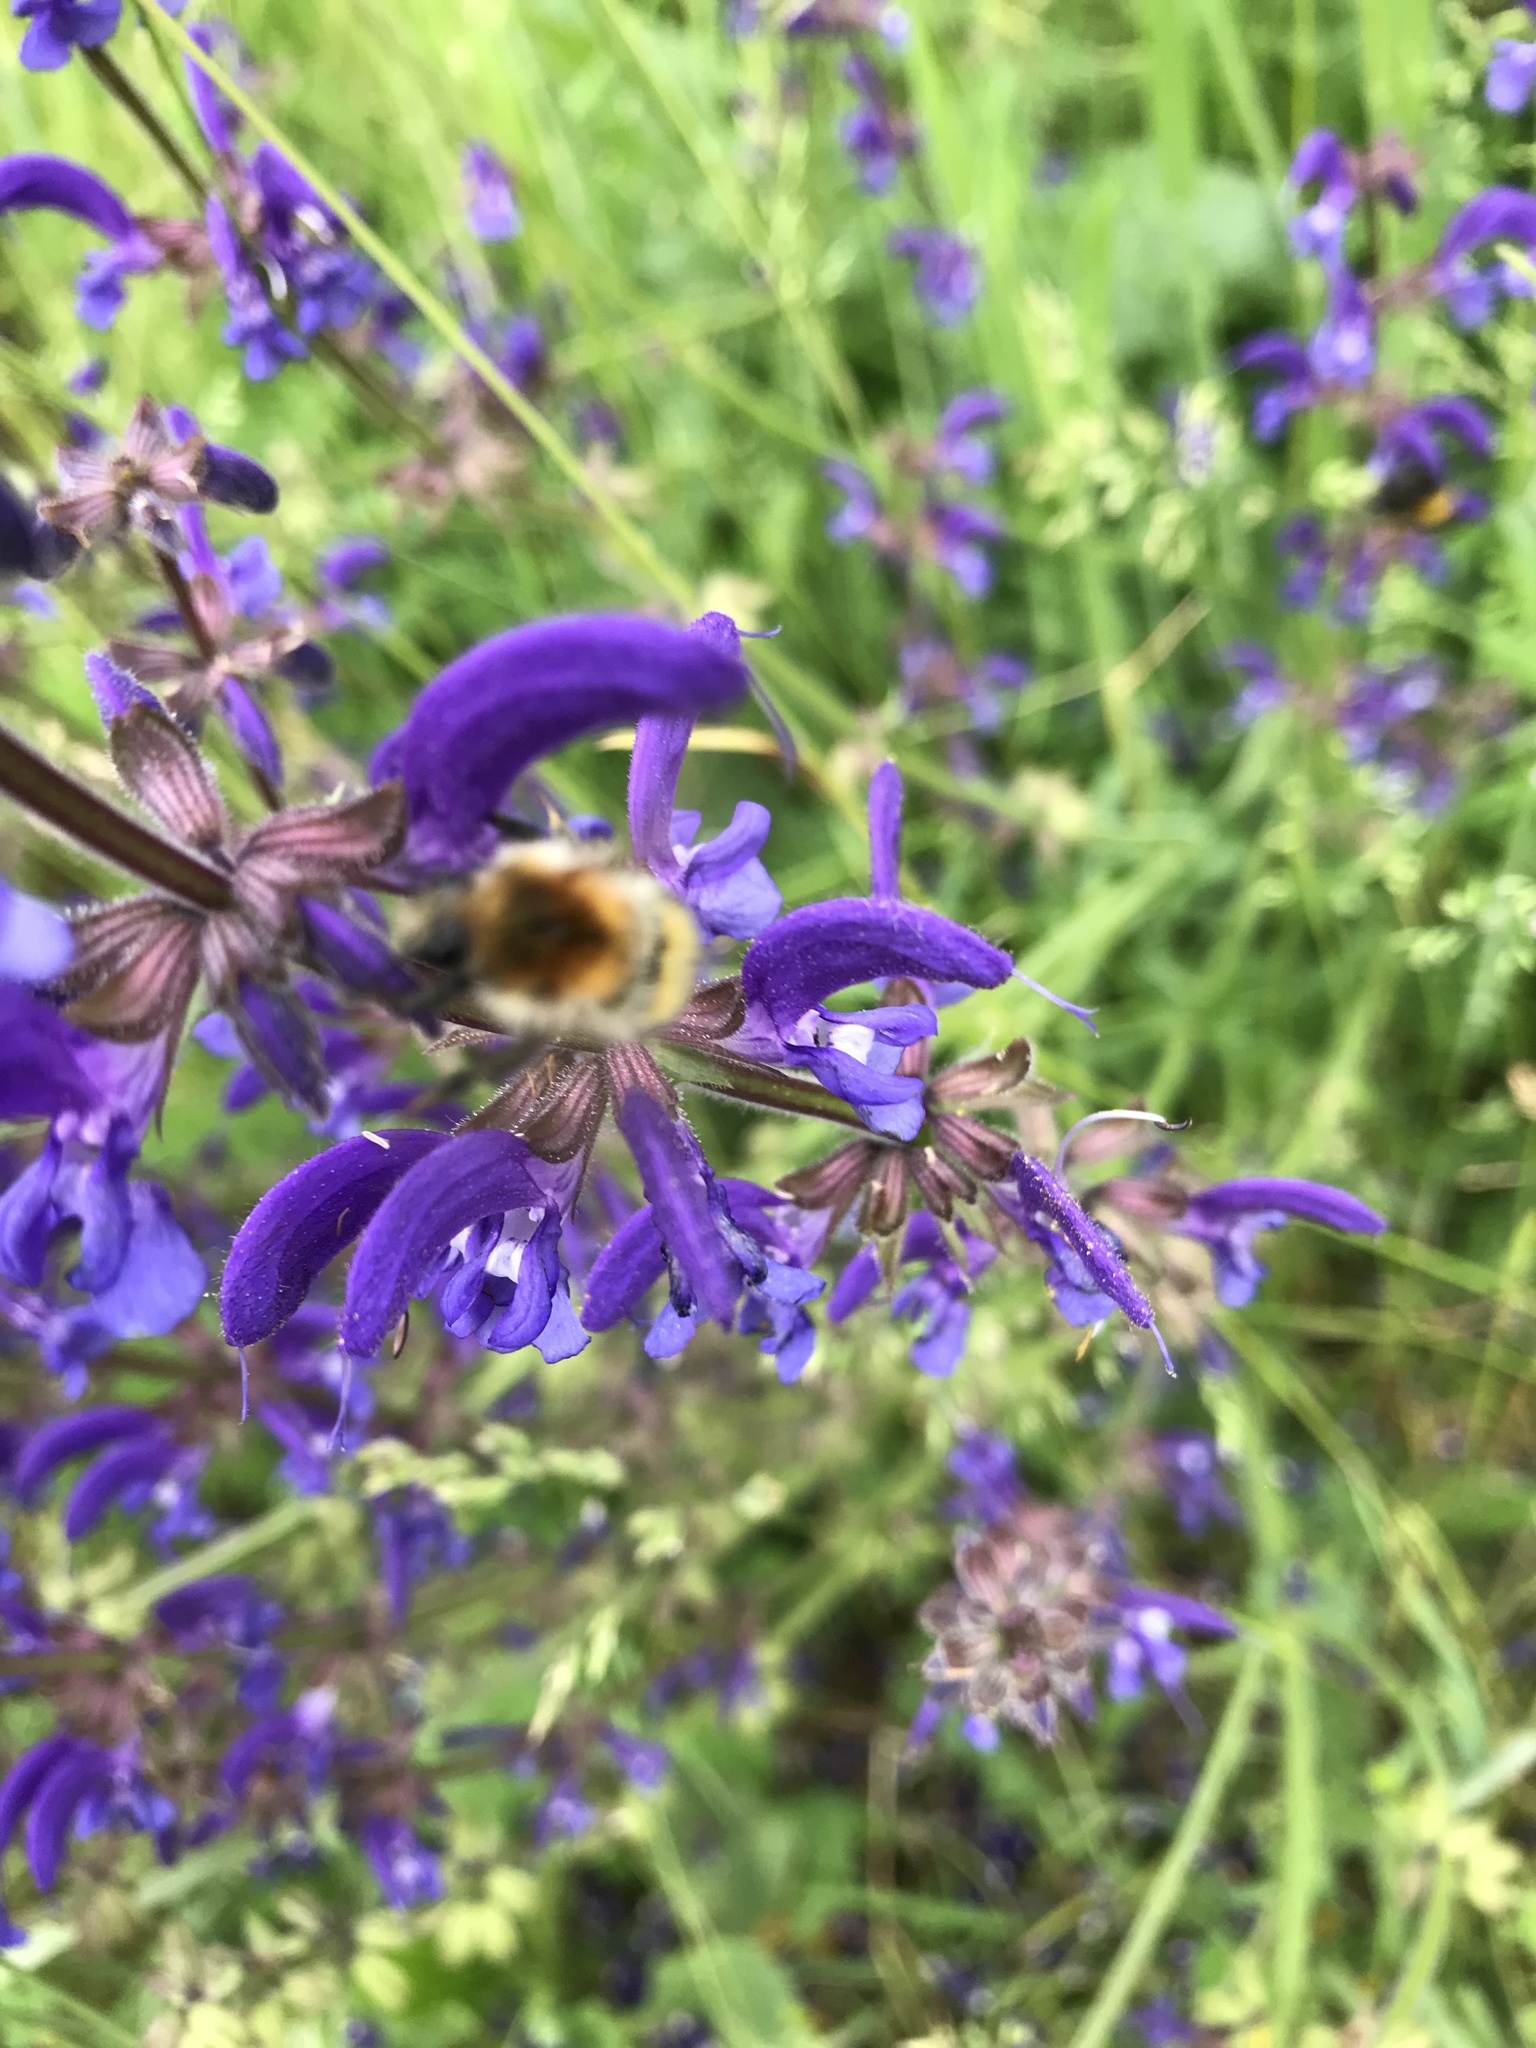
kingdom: Animalia
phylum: Arthropoda
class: Insecta
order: Hymenoptera
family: Apidae
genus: Bombus
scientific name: Bombus pascuorum
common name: Common carder bee
